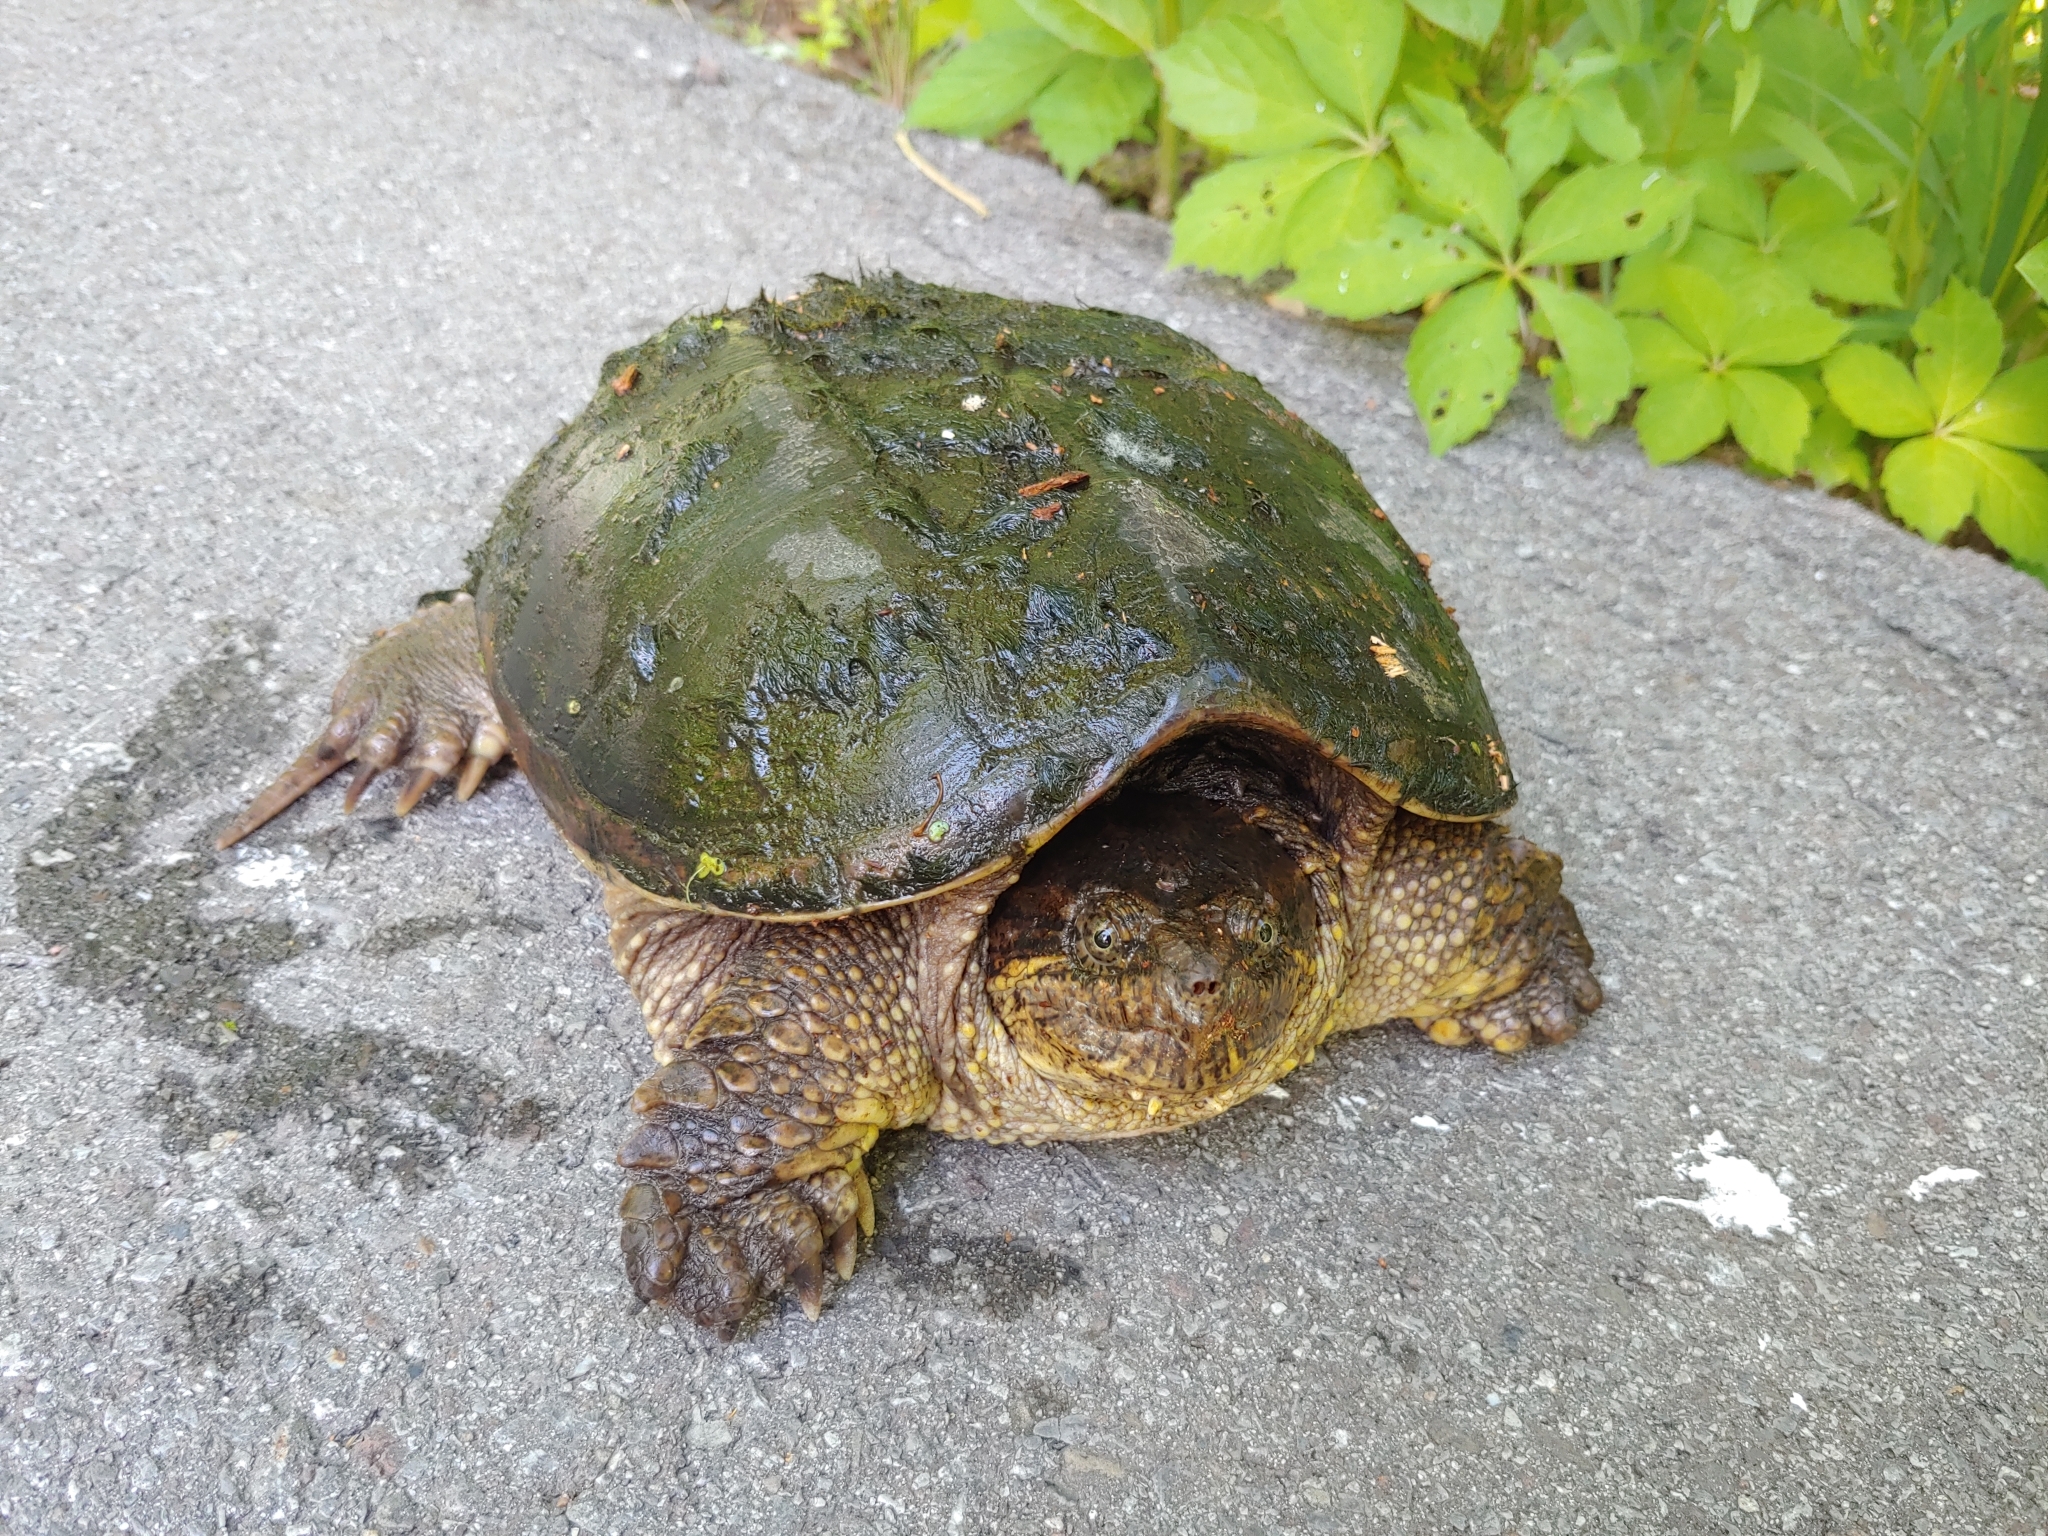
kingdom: Animalia
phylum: Chordata
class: Testudines
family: Chelydridae
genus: Chelydra
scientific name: Chelydra serpentina
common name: Common snapping turtle
